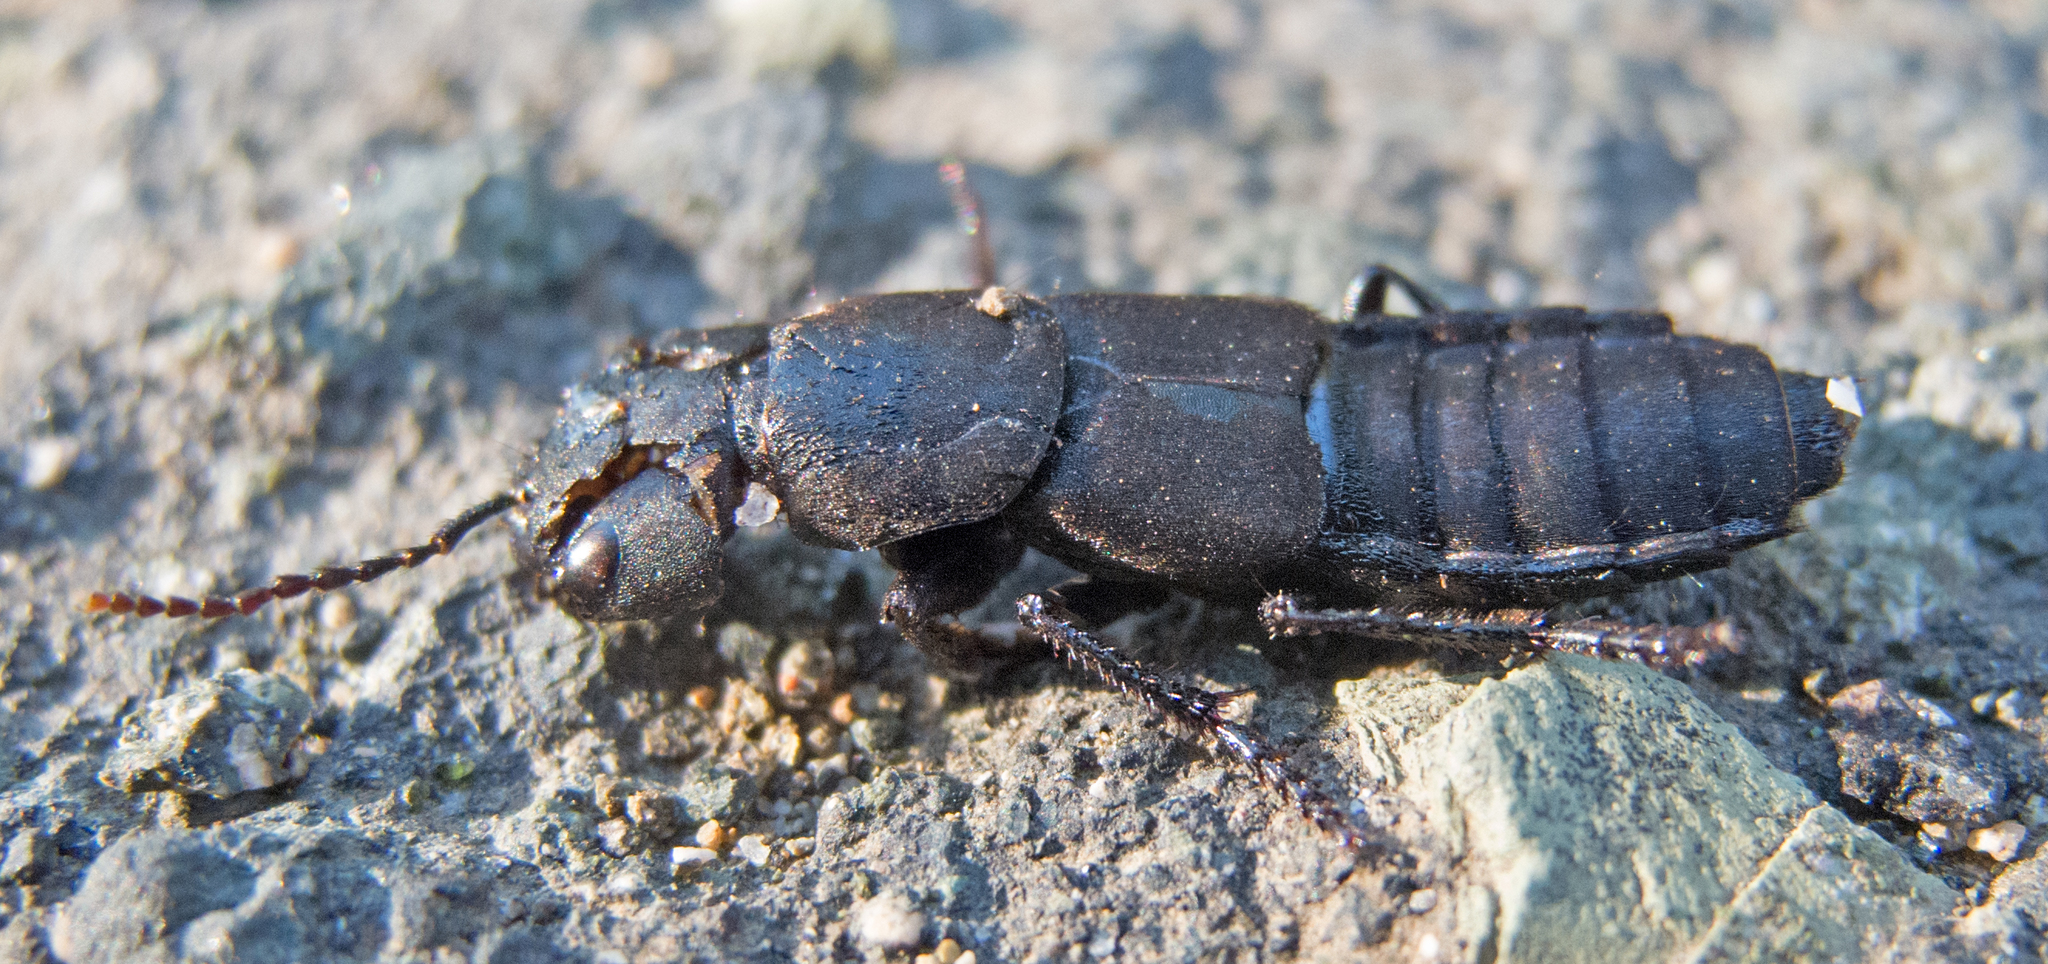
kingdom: Animalia
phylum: Arthropoda
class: Insecta
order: Coleoptera
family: Staphylinidae
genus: Ocypus
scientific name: Ocypus olens
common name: Devil's coach-horse
